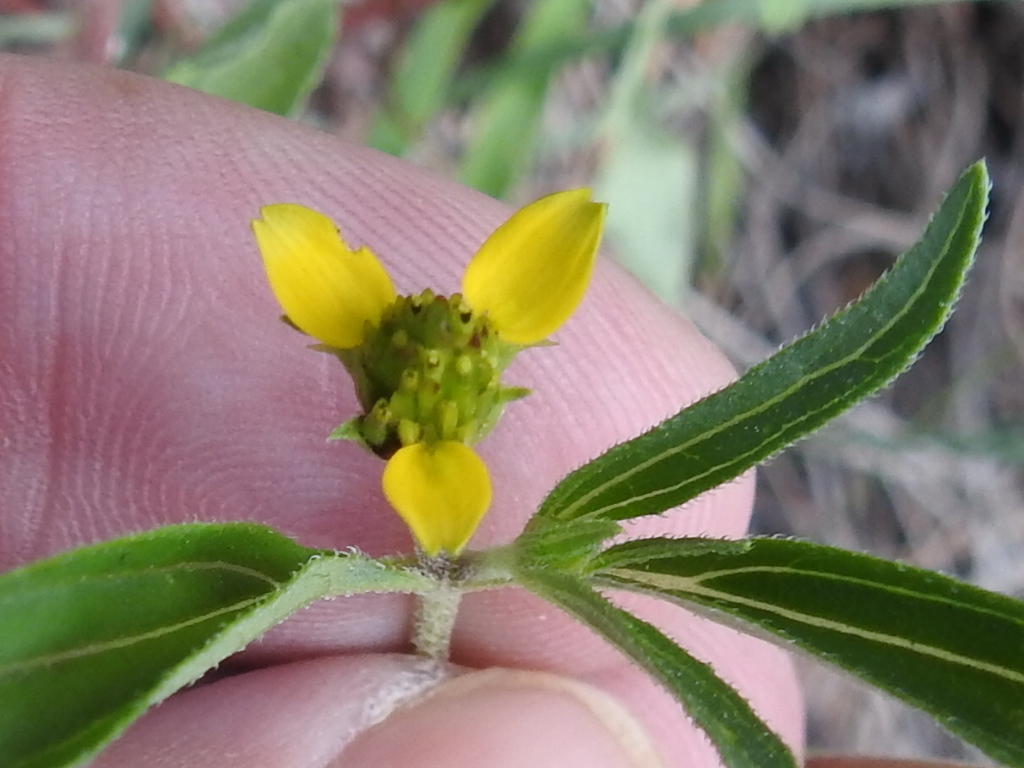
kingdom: Plantae
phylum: Tracheophyta
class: Magnoliopsida
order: Asterales
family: Asteraceae
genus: Sanvitalia
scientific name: Sanvitalia abertii
